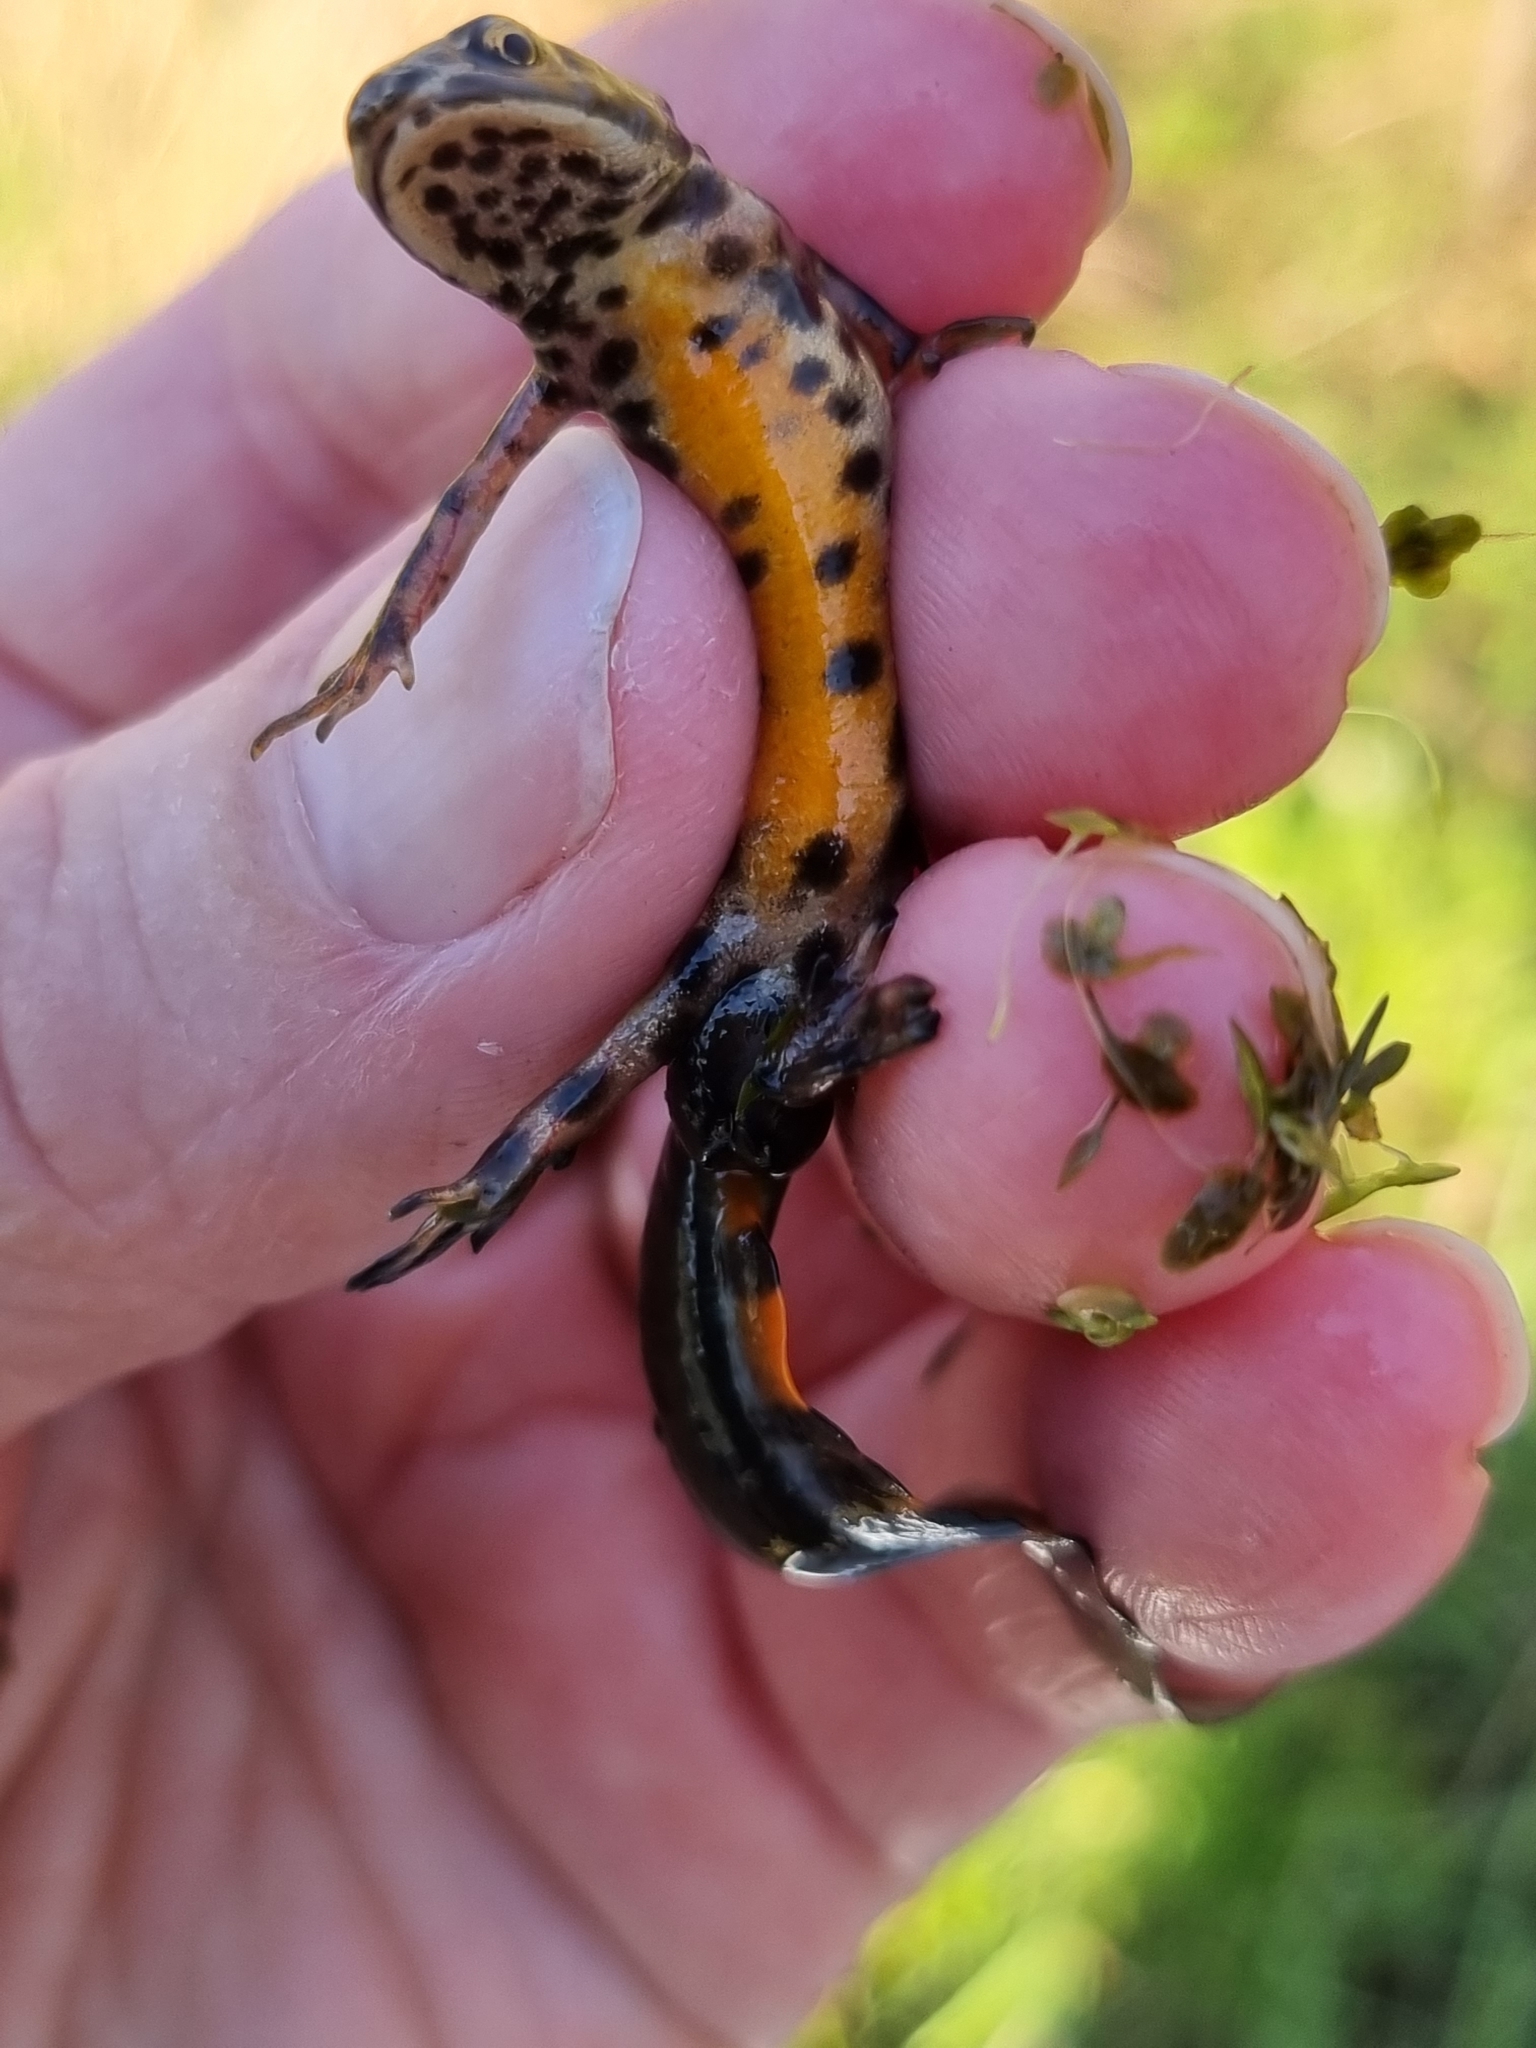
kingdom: Animalia
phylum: Chordata
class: Amphibia
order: Caudata
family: Salamandridae
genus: Lissotriton
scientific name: Lissotriton vulgaris
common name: Smooth newt
